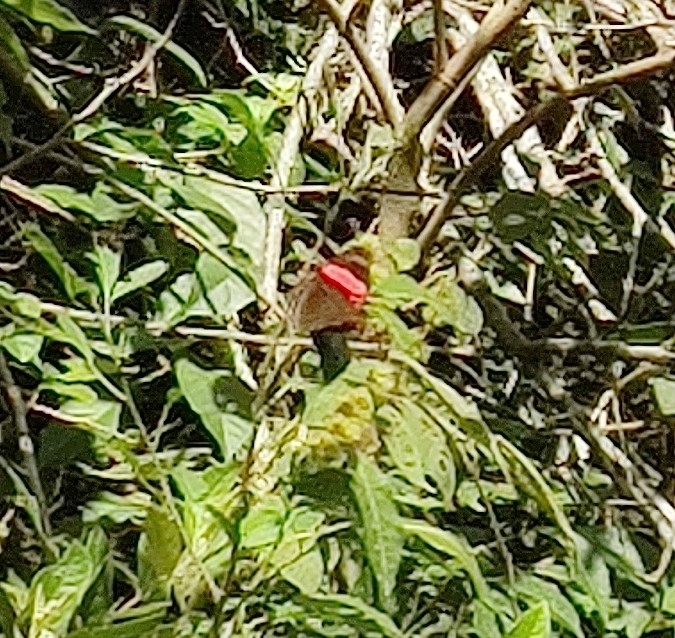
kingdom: Animalia
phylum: Arthropoda
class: Insecta
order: Lepidoptera
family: Nymphalidae
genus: Limenitis
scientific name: Limenitis isis
